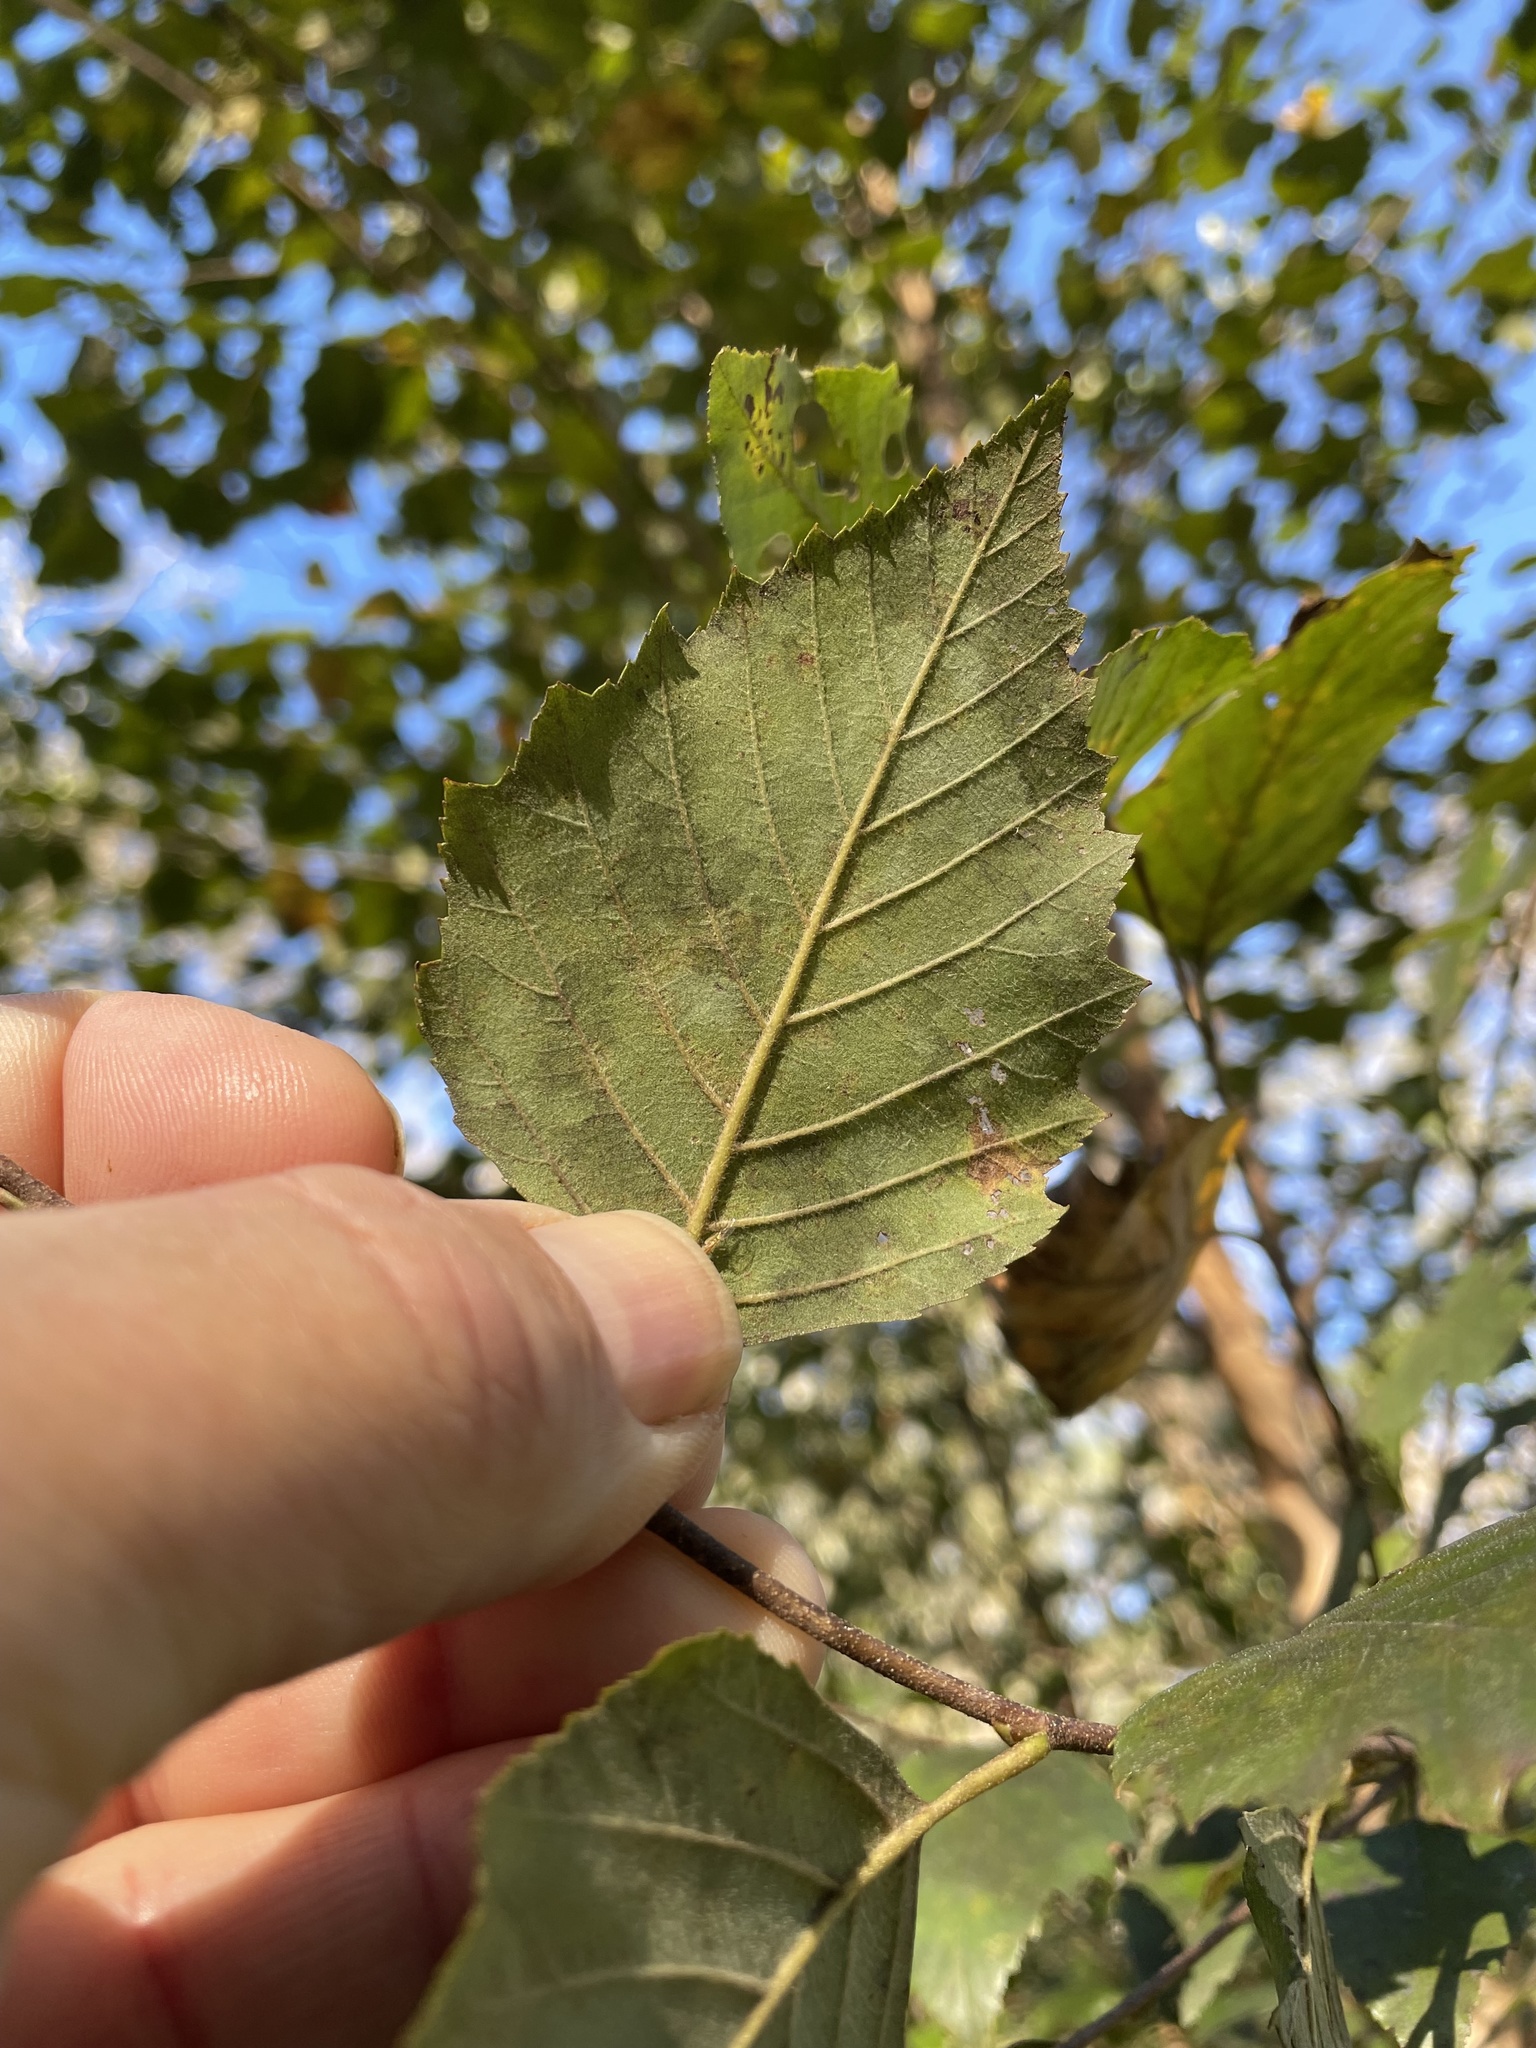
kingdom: Plantae
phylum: Tracheophyta
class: Magnoliopsida
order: Fagales
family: Betulaceae
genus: Betula
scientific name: Betula nigra
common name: Black birch
